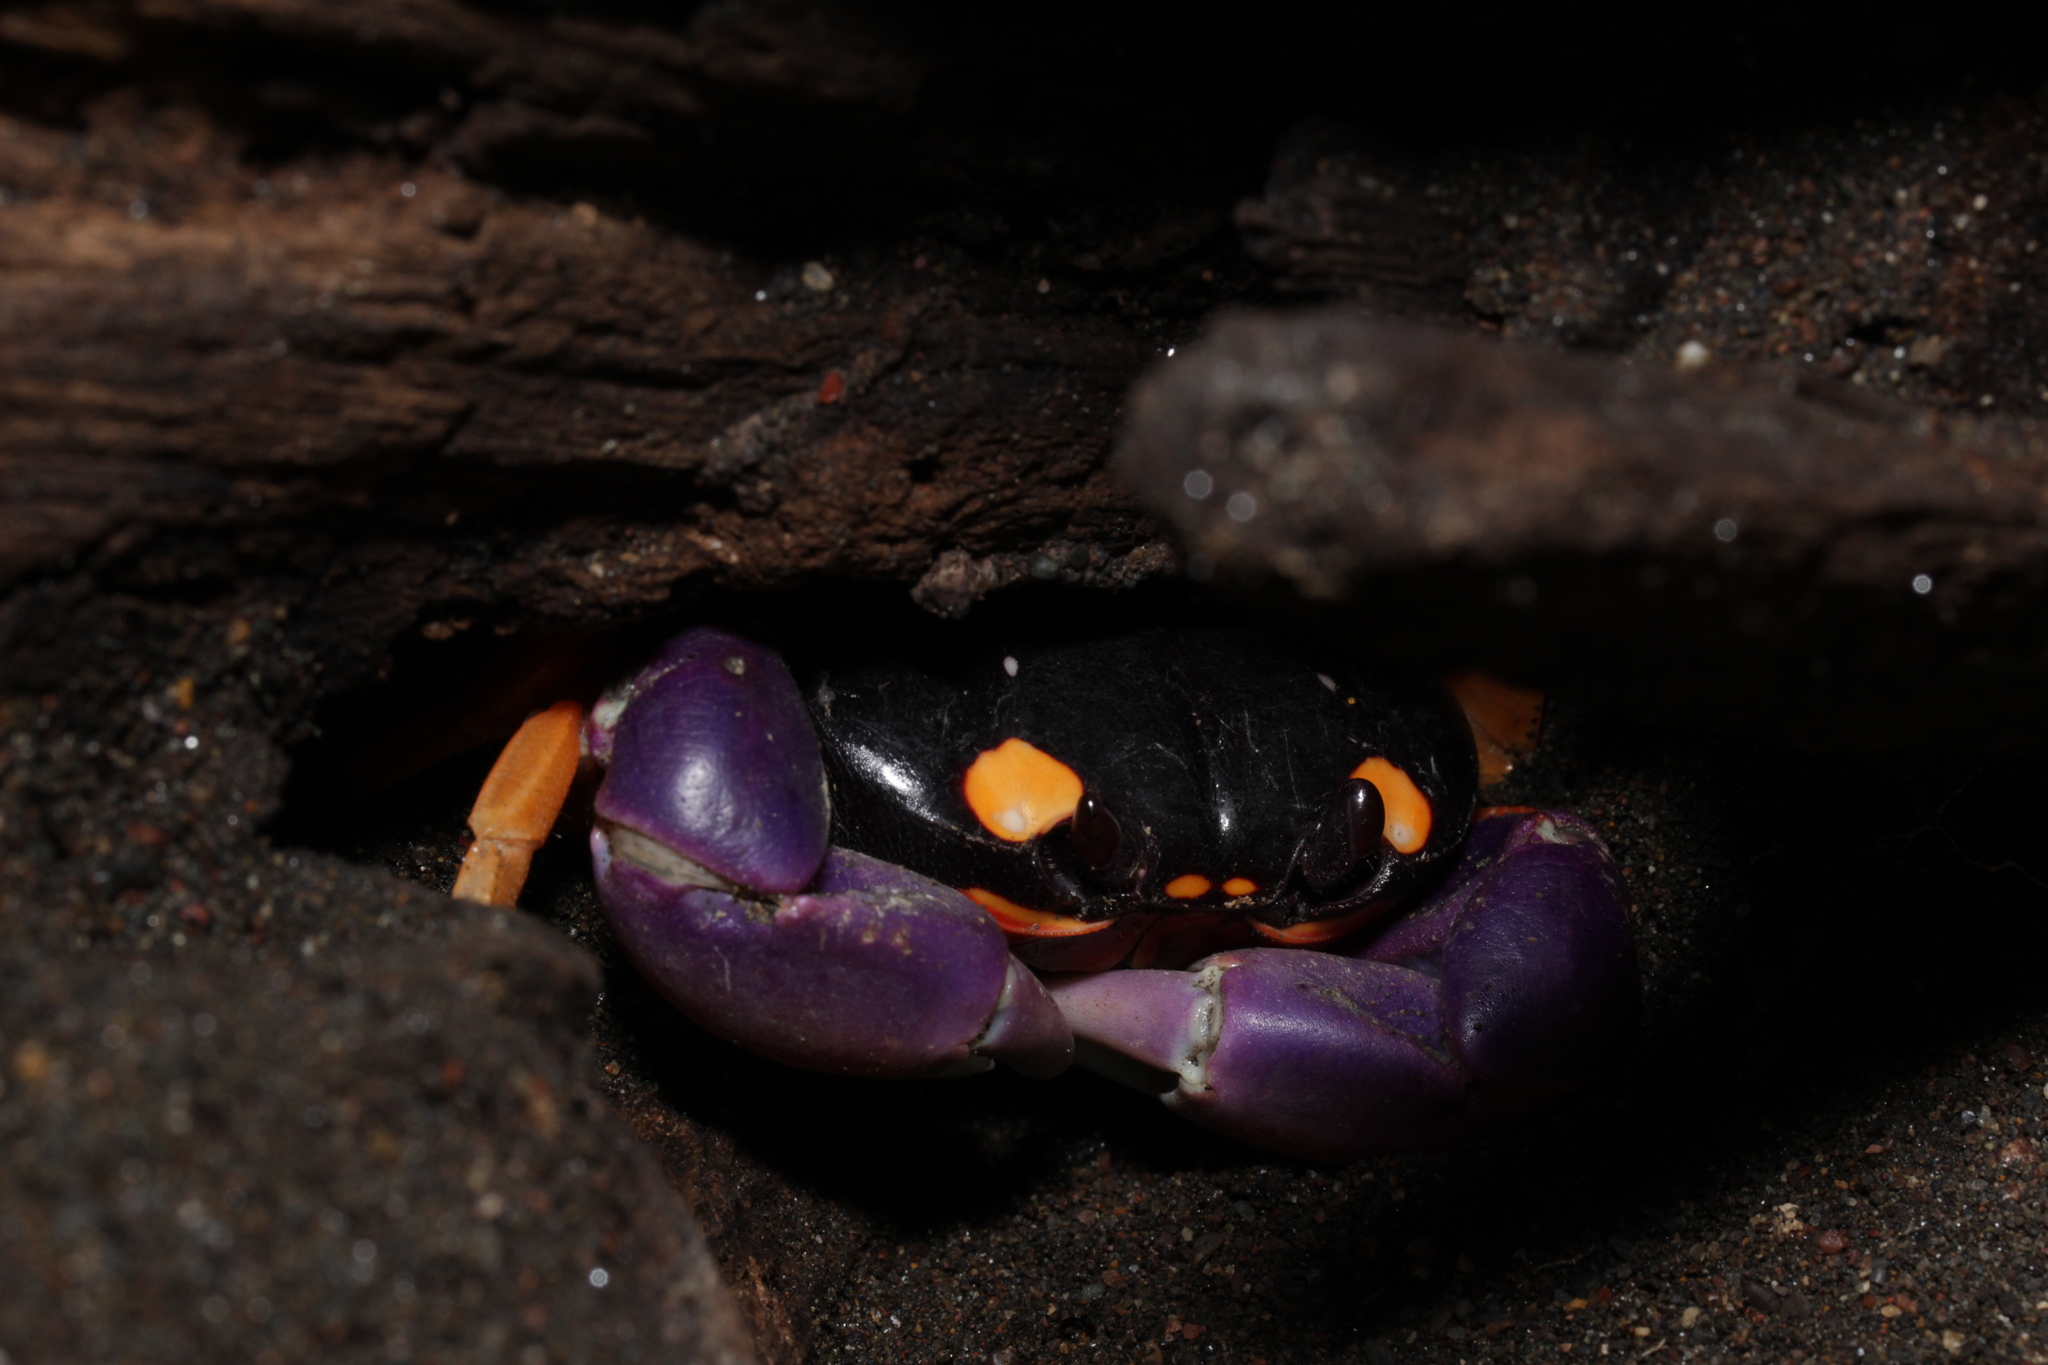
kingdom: Animalia
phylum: Arthropoda
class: Malacostraca
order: Decapoda
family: Gecarcinidae
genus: Gecarcinus
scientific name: Gecarcinus quadratus
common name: Halloween crab
